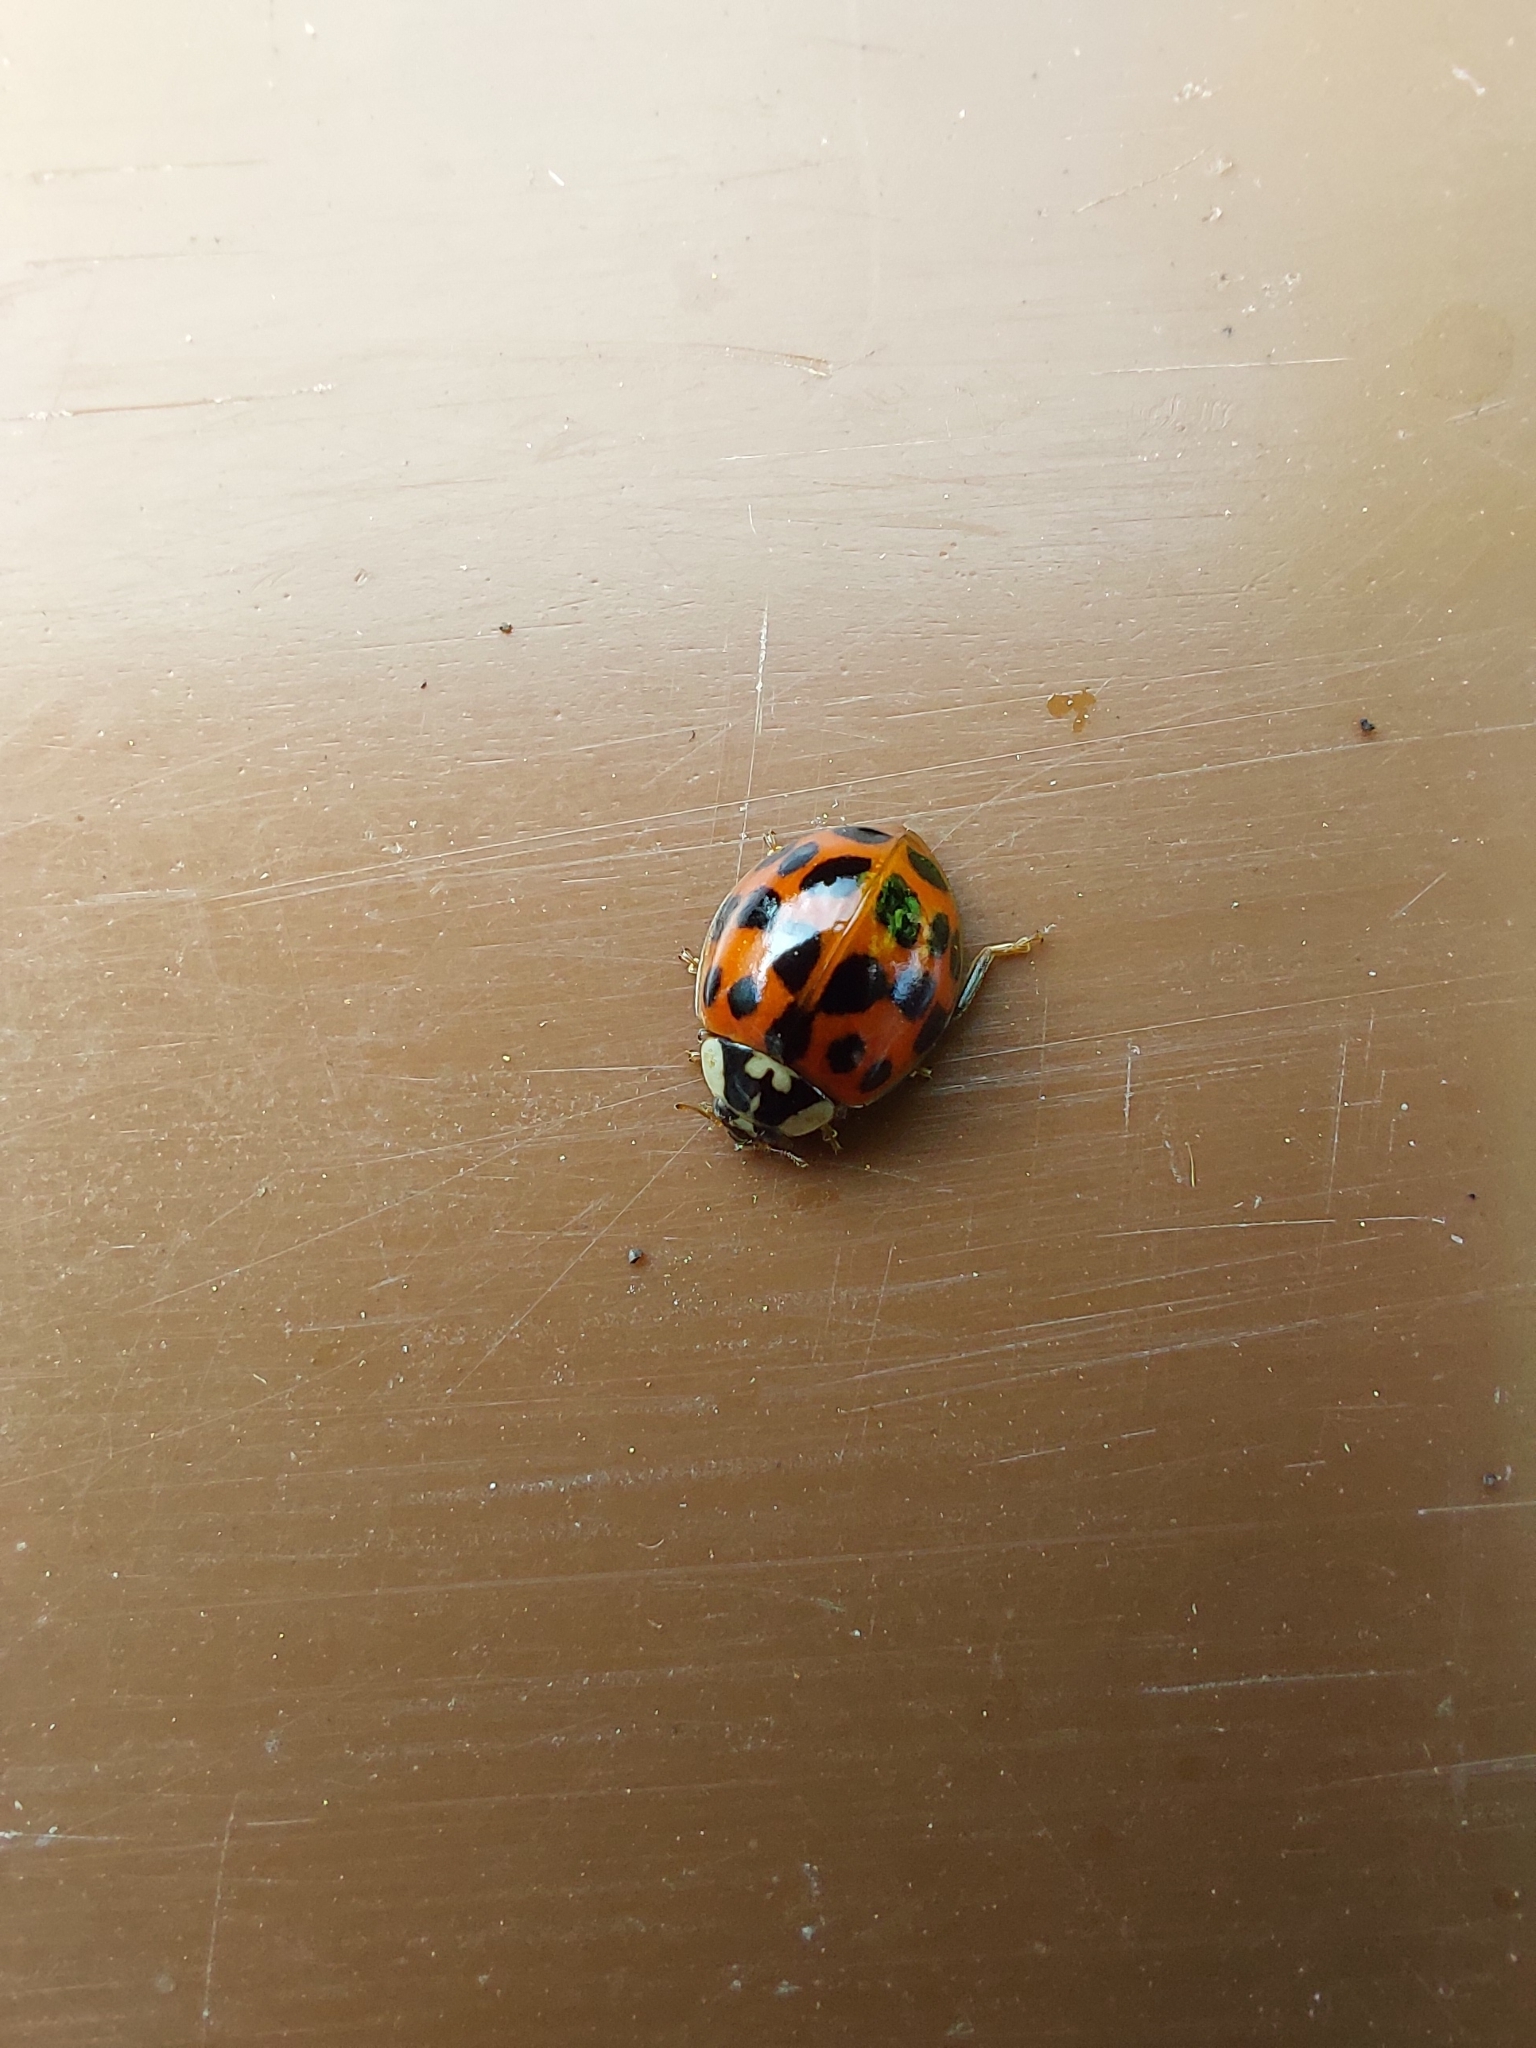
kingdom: Animalia
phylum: Arthropoda
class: Insecta
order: Coleoptera
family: Coccinellidae
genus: Harmonia
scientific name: Harmonia axyridis
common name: Harlequin ladybird
